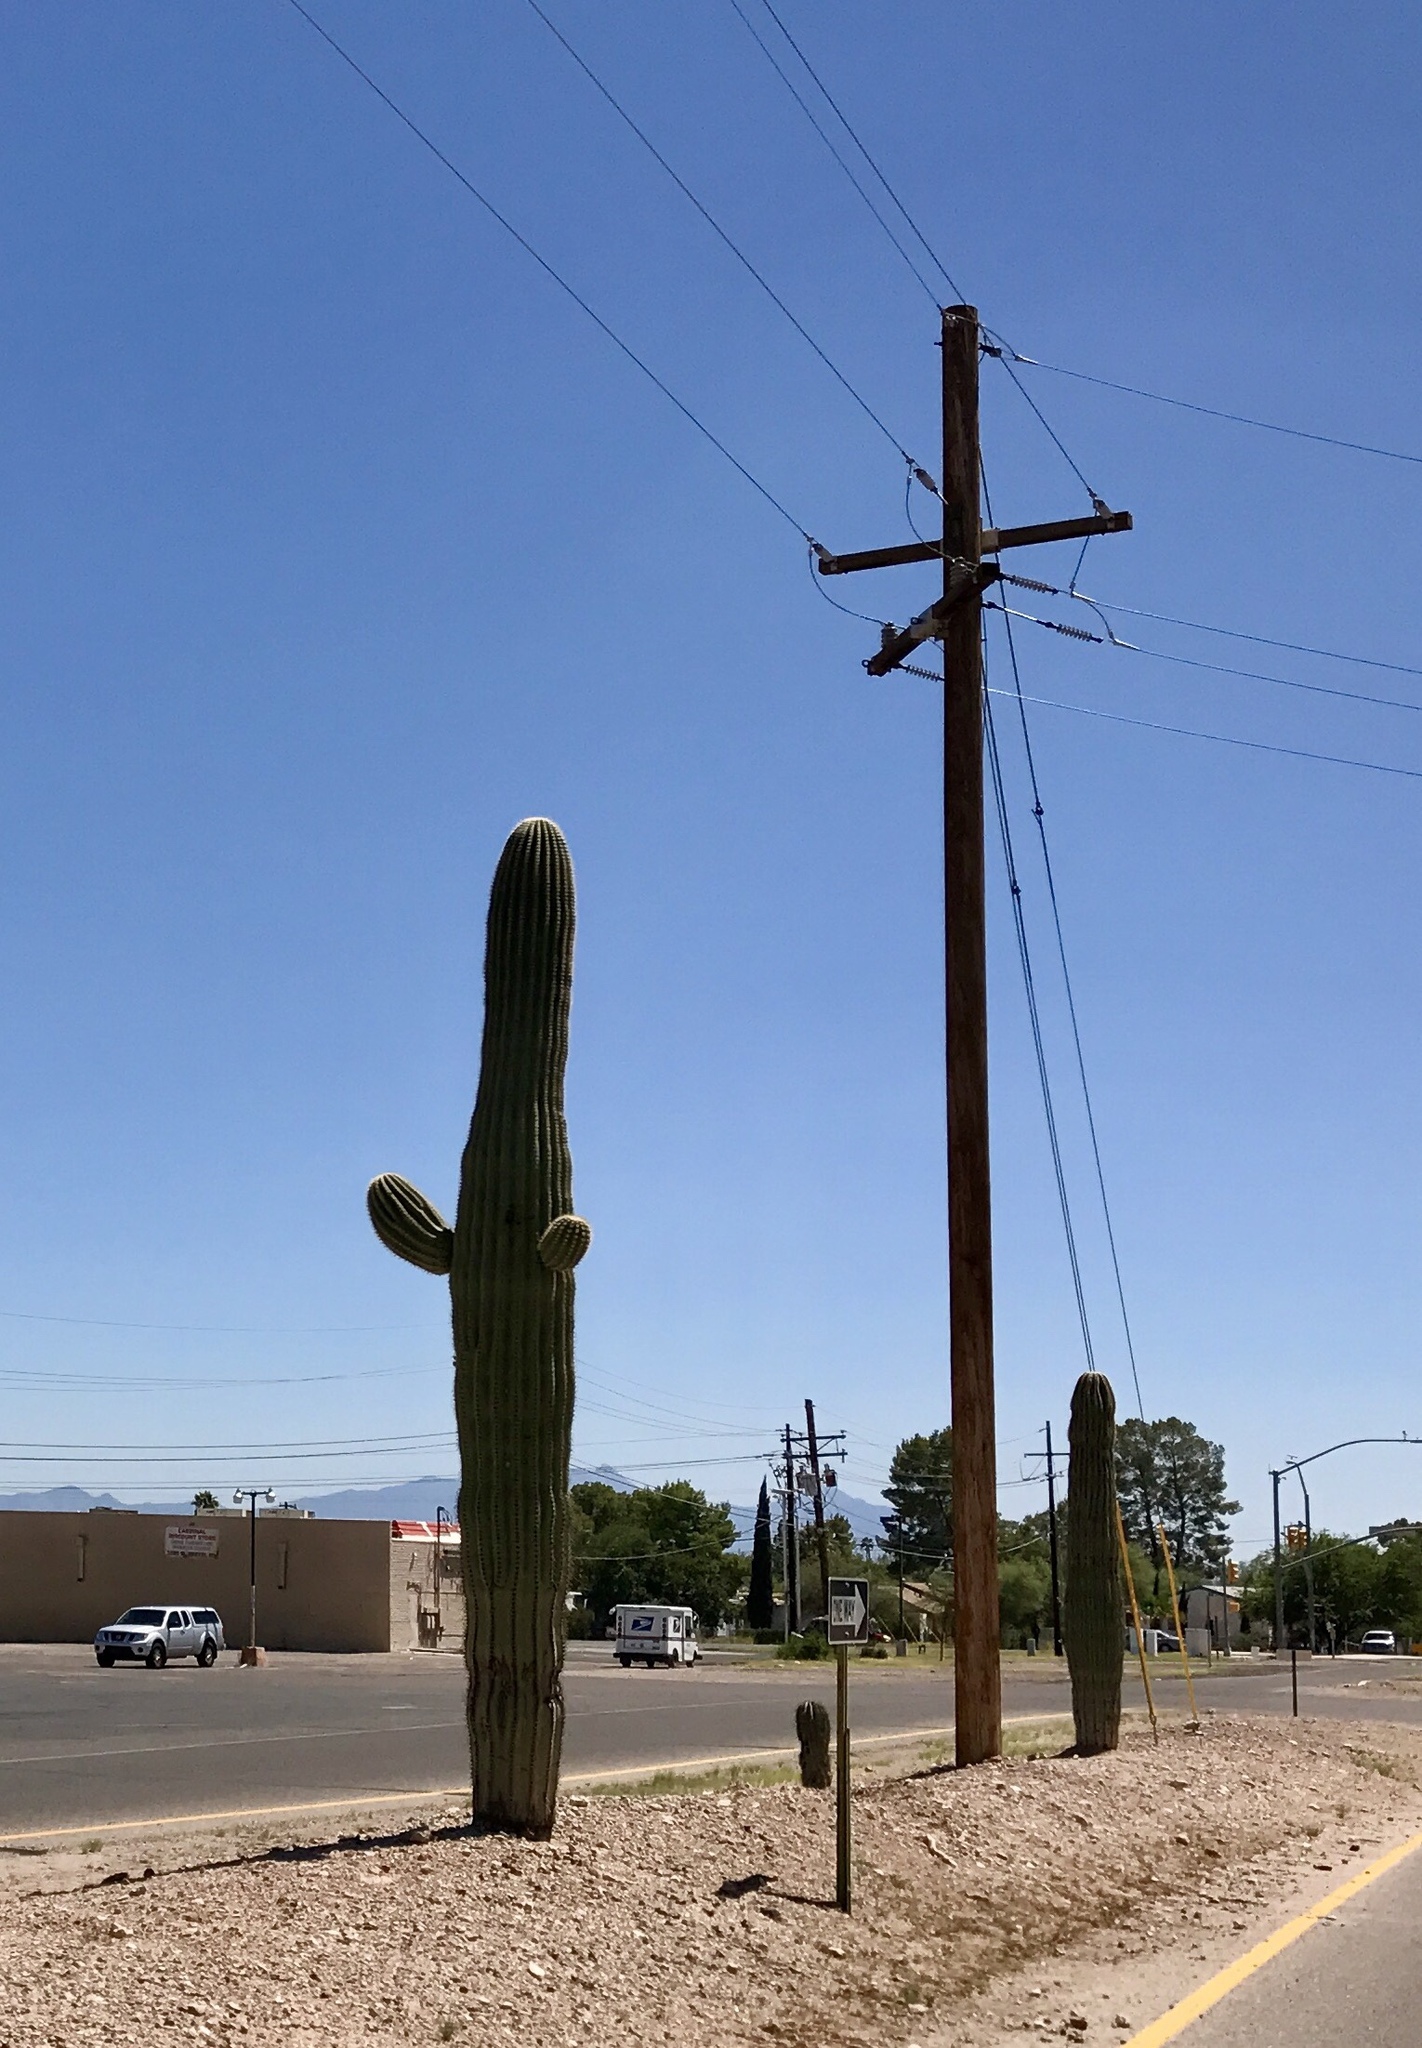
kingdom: Plantae
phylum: Tracheophyta
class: Magnoliopsida
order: Caryophyllales
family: Cactaceae
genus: Carnegiea
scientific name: Carnegiea gigantea
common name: Saguaro
